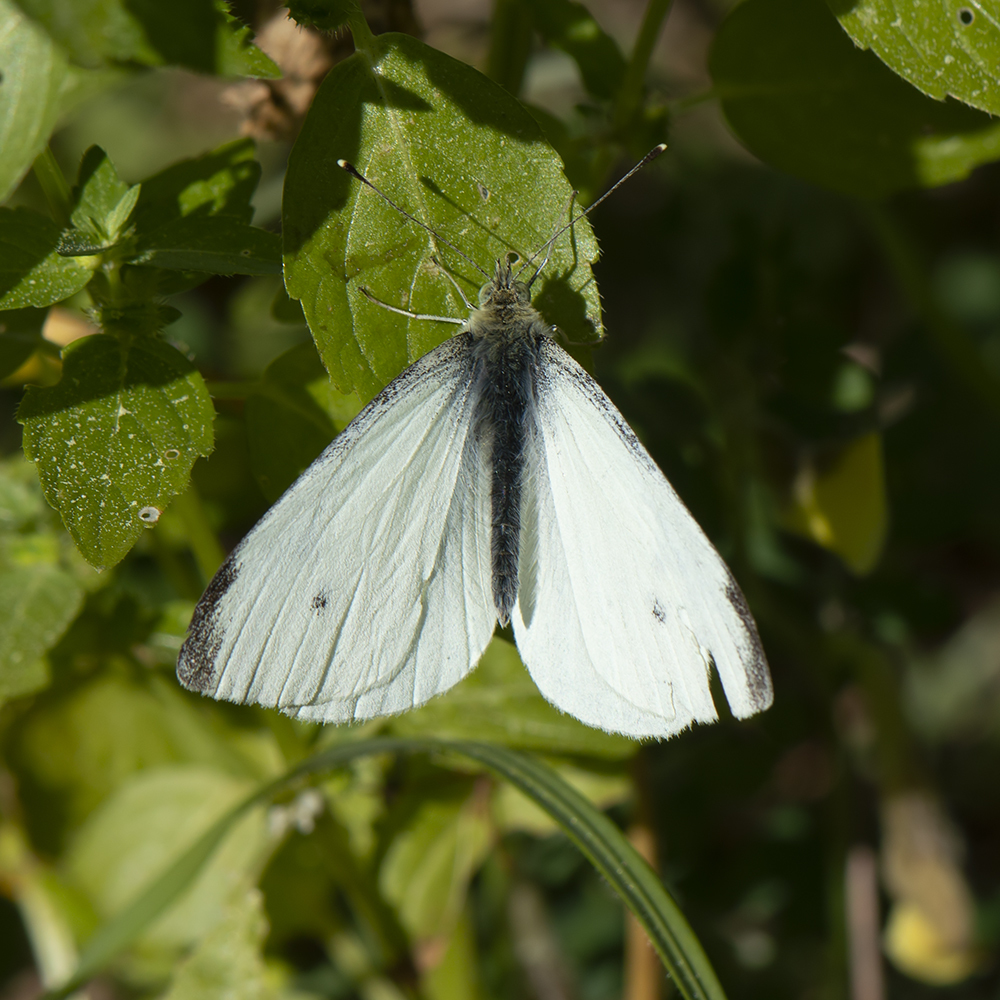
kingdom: Animalia
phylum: Arthropoda
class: Insecta
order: Lepidoptera
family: Pieridae
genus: Pieris
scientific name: Pieris rapae
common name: Small white
